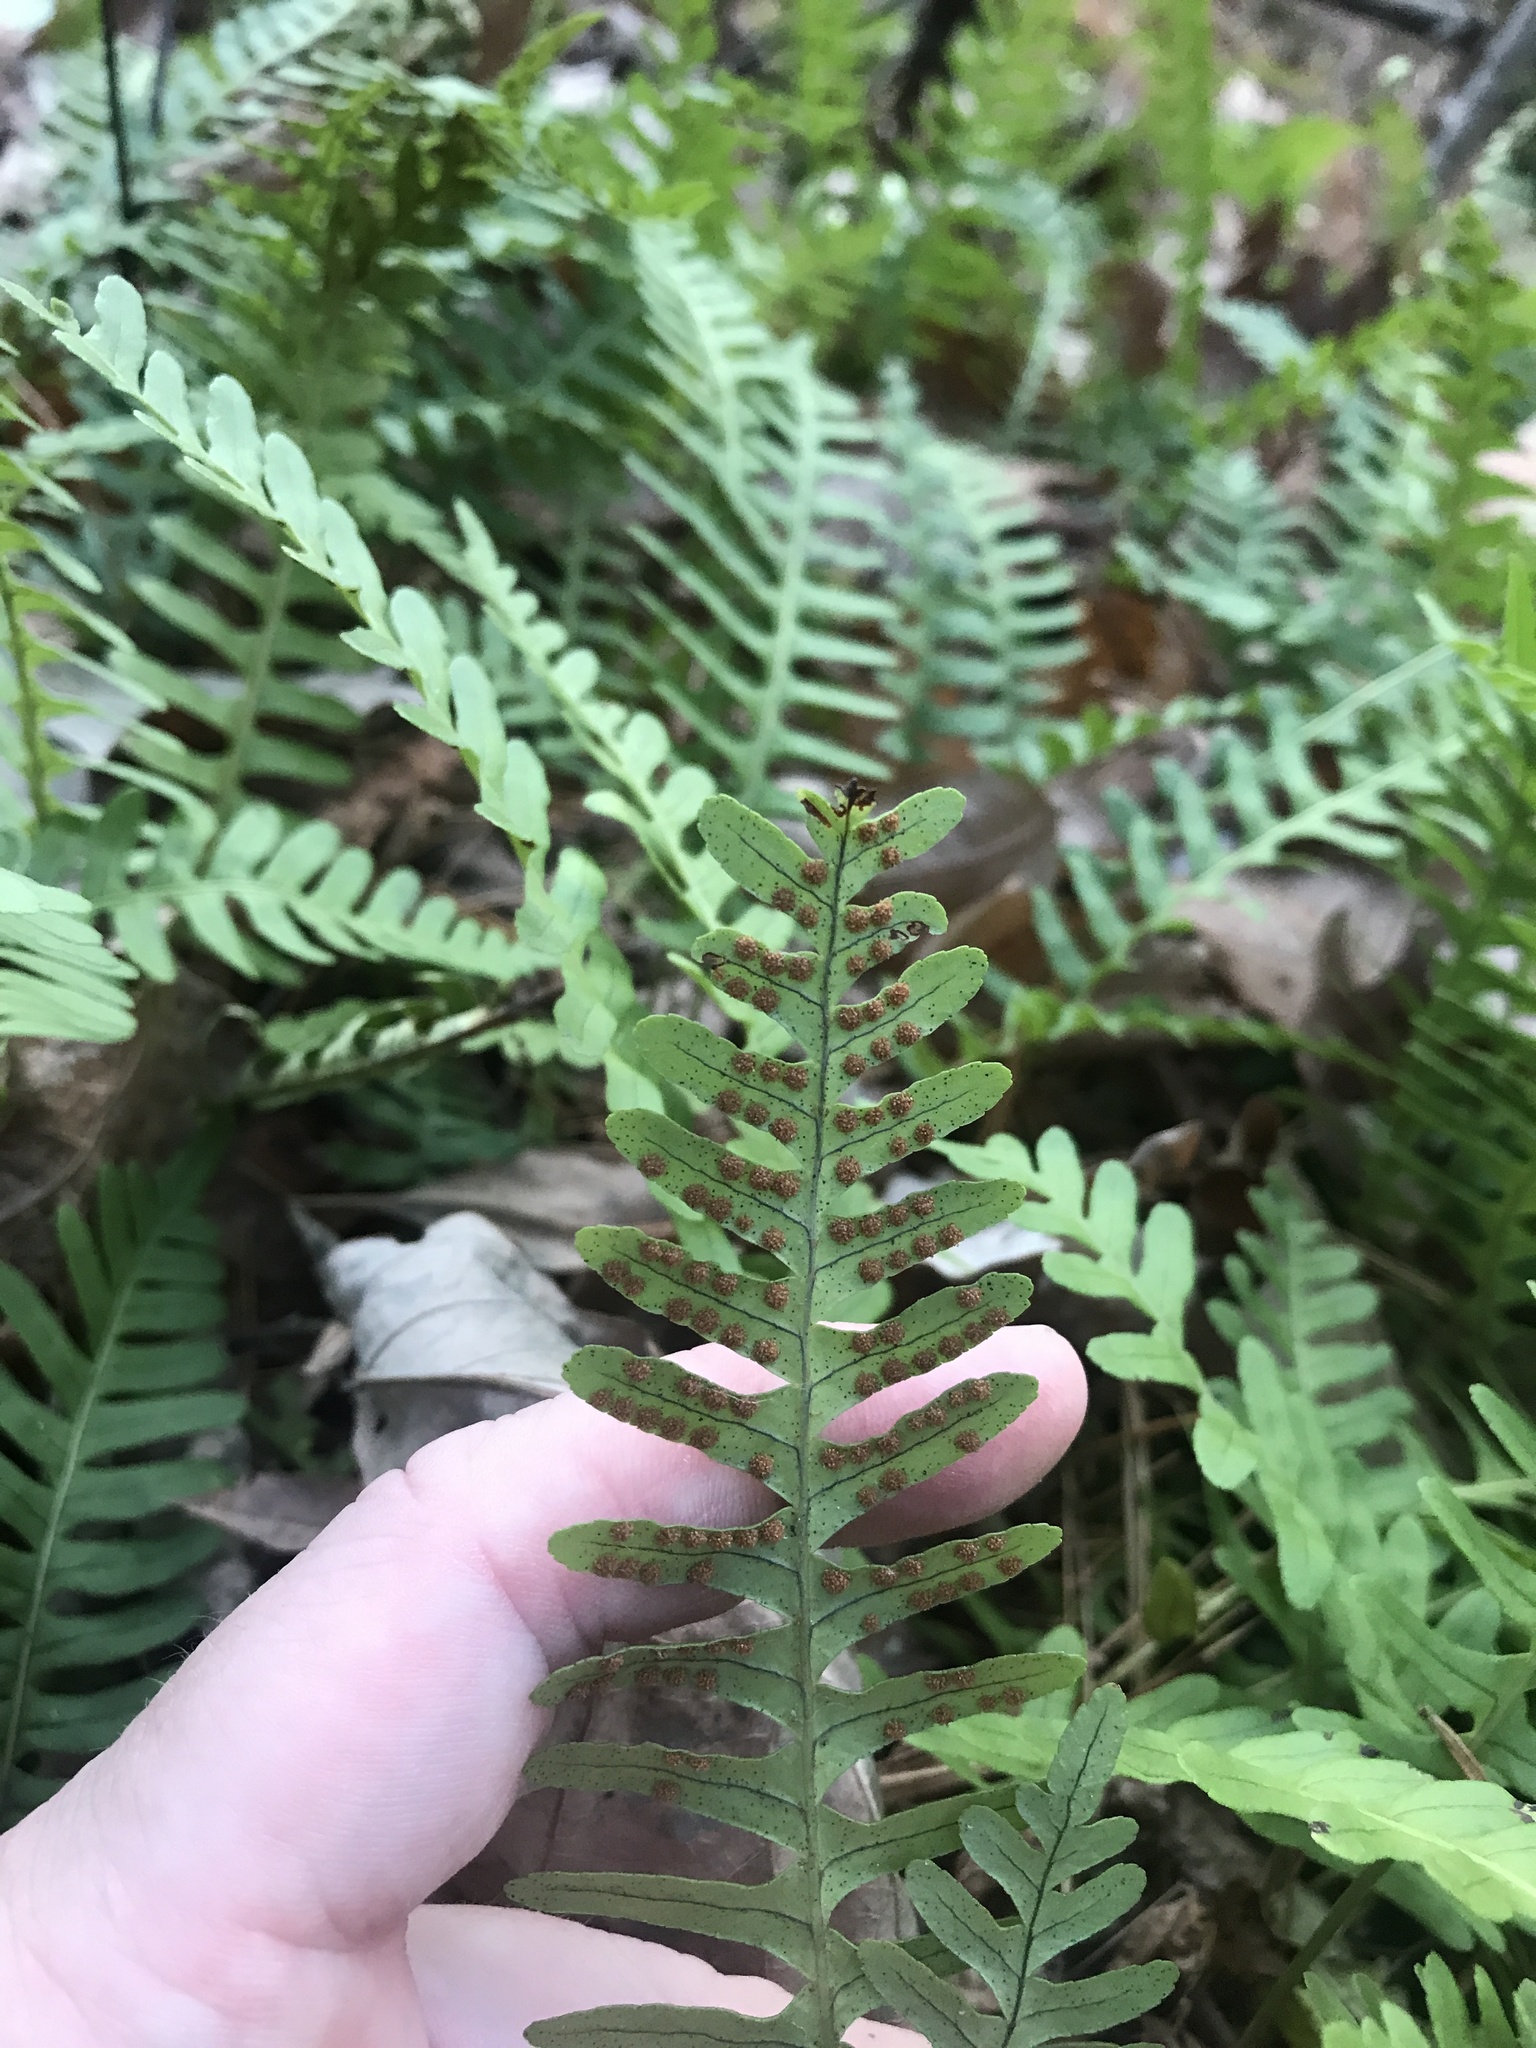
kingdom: Plantae
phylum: Tracheophyta
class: Polypodiopsida
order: Polypodiales
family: Polypodiaceae
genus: Polypodium
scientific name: Polypodium virginianum
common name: American wall fern
